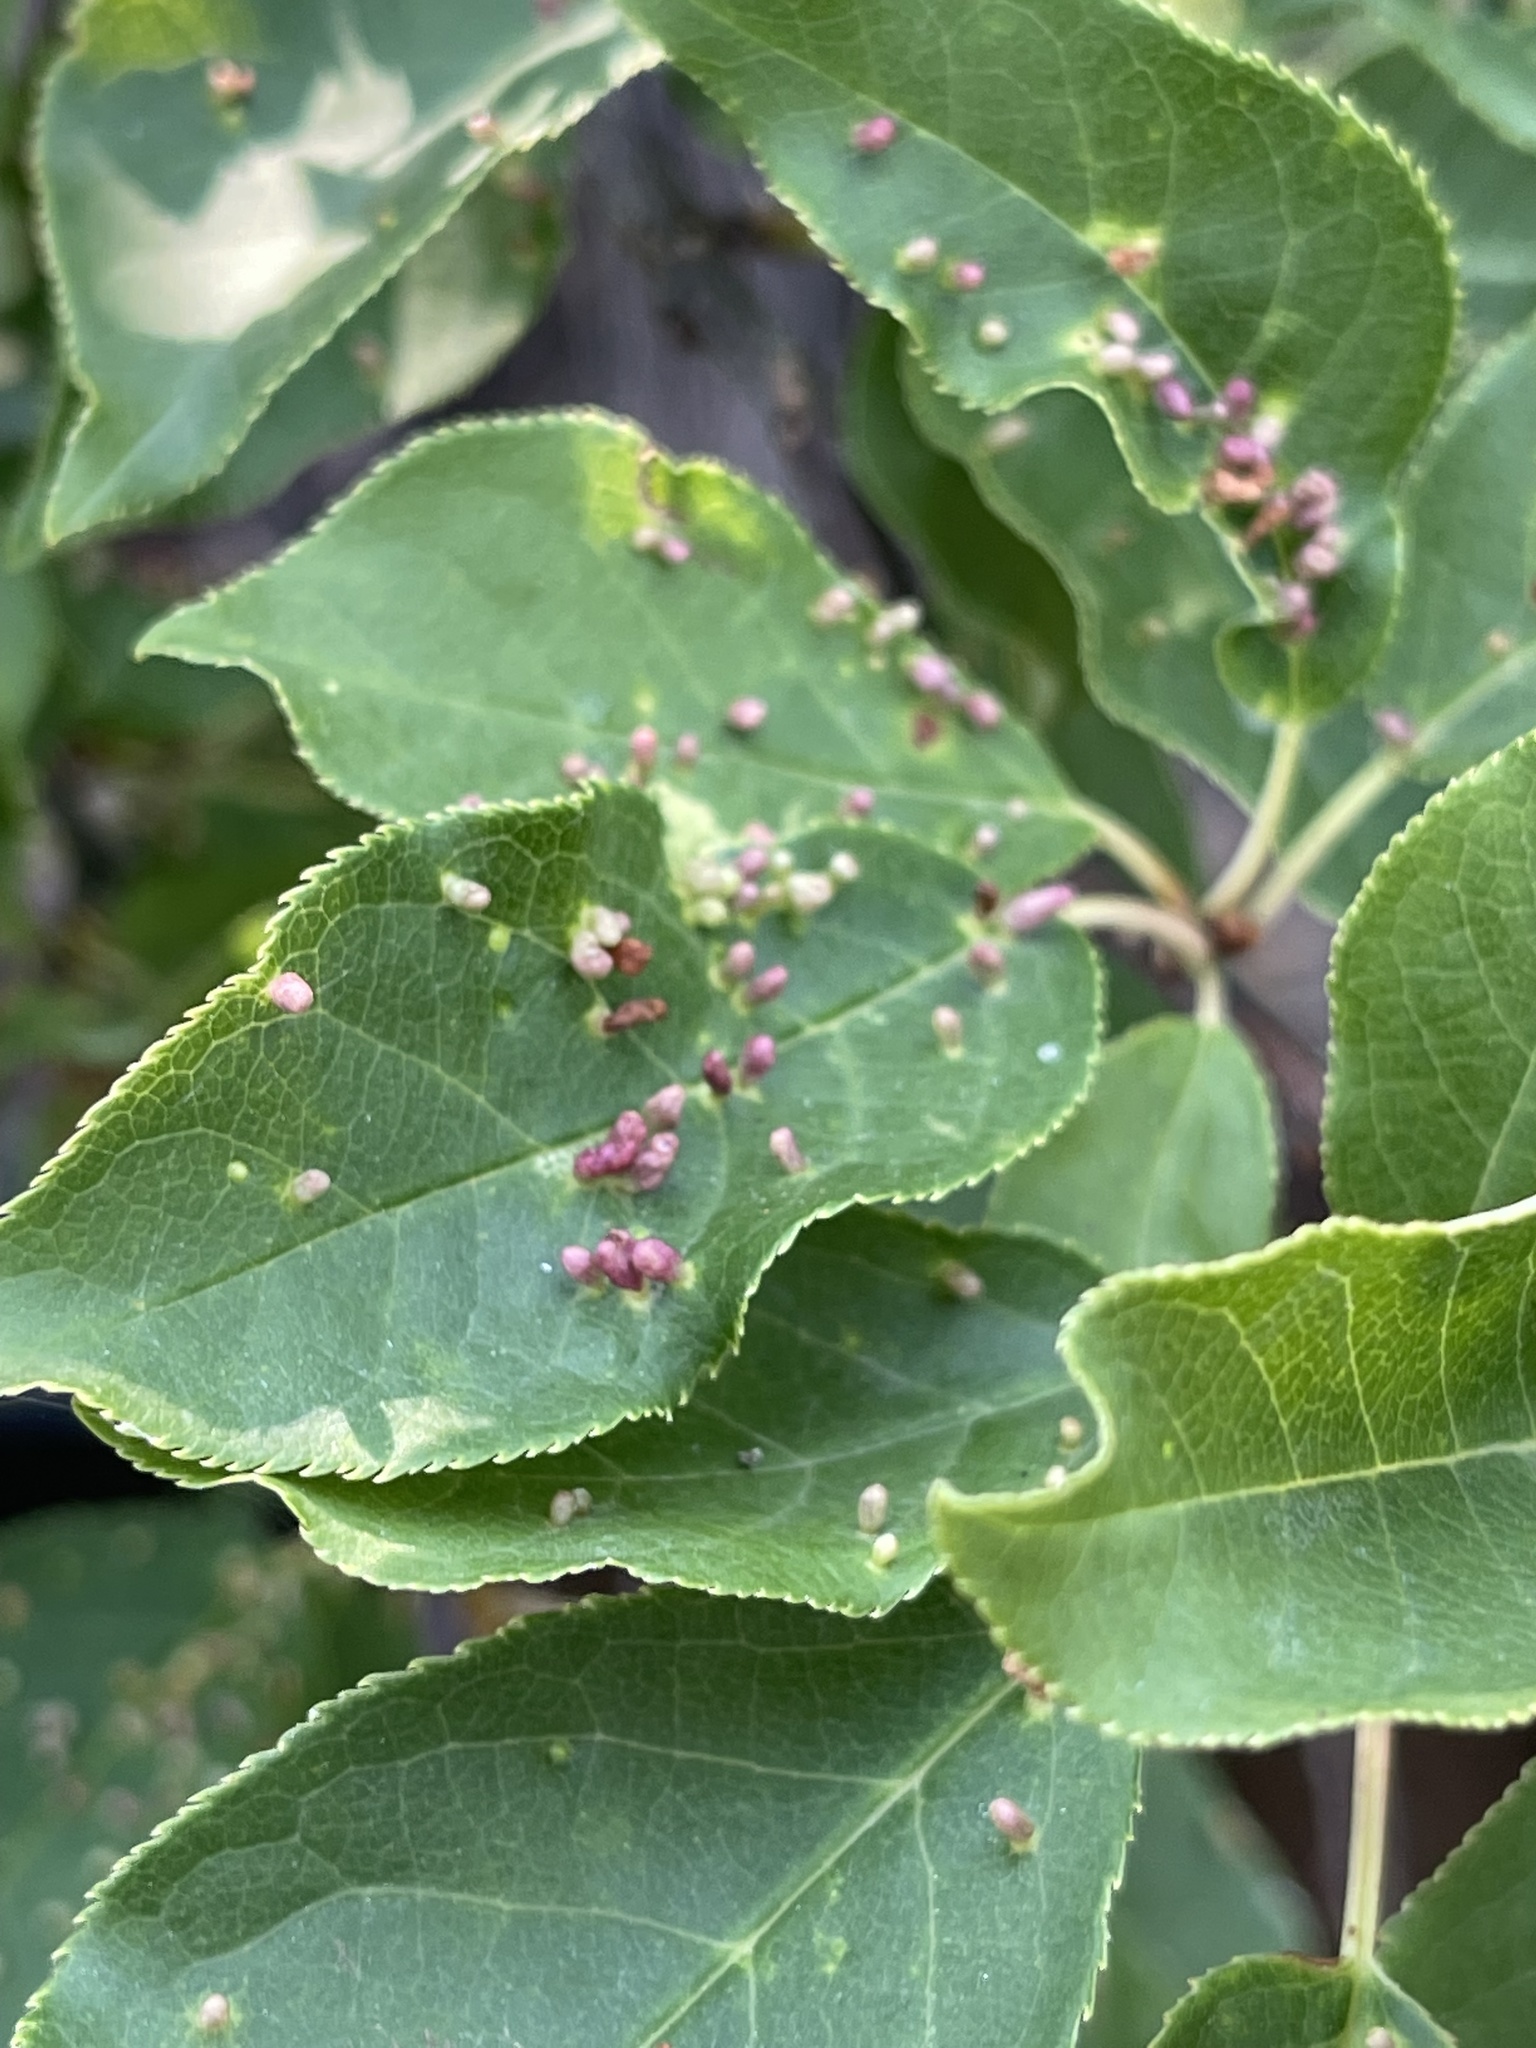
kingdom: Animalia
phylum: Arthropoda
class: Arachnida
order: Trombidiformes
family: Eriophyidae
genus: Eriophyes
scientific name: Eriophyes emarginatae
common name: Plum leaf gall mite
